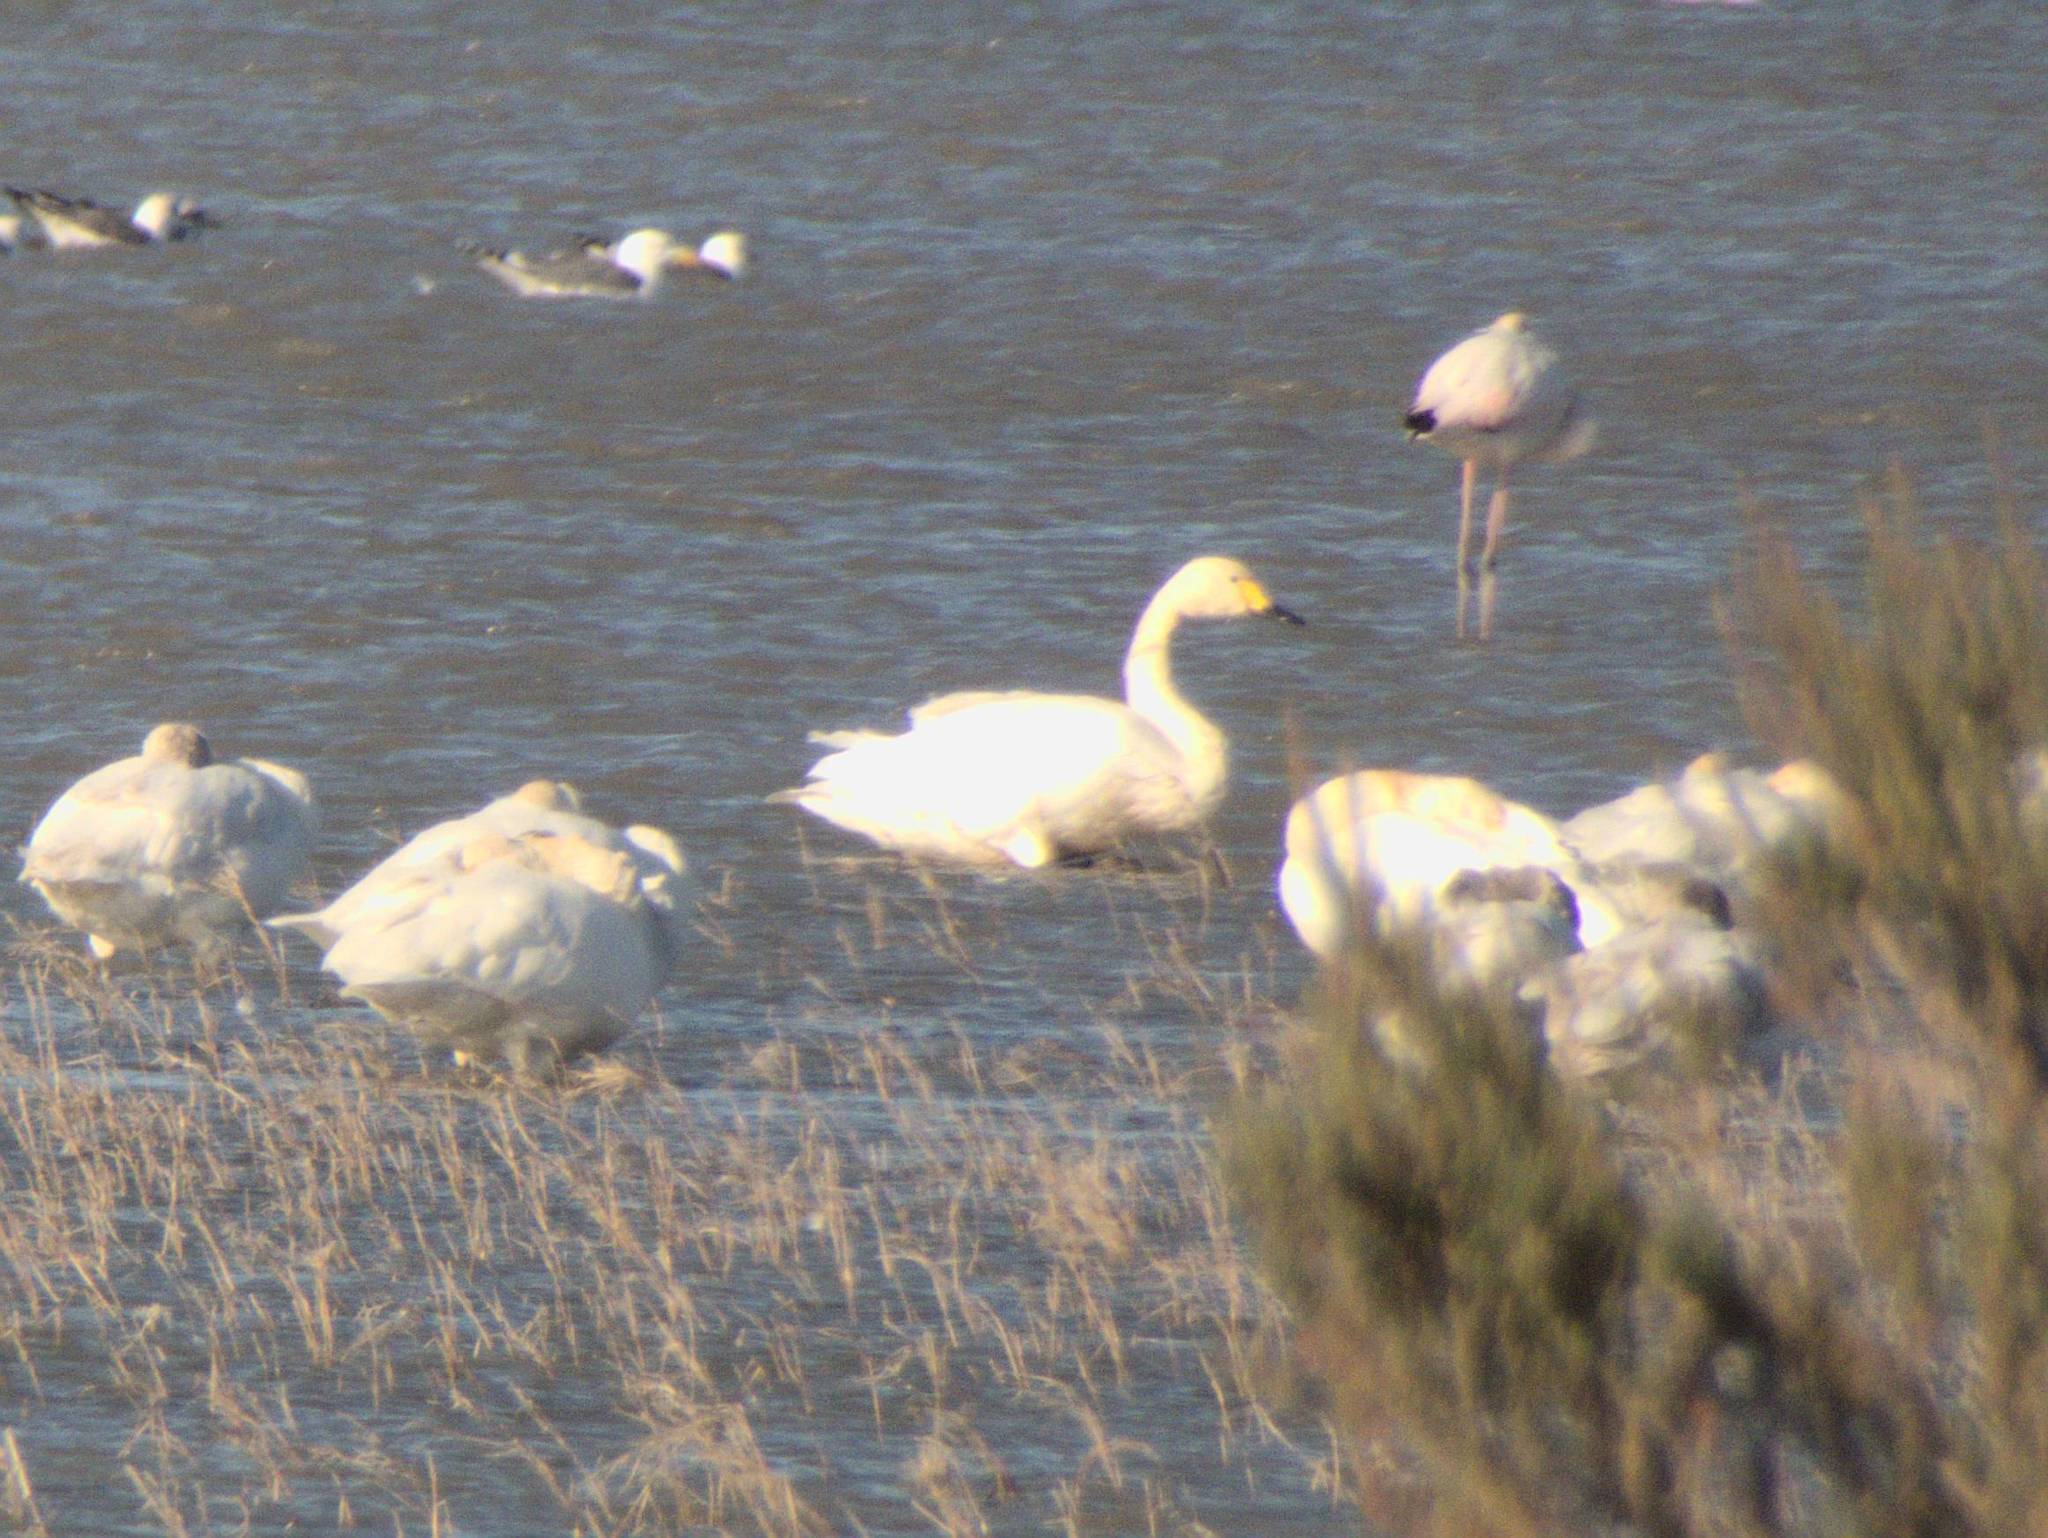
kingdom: Animalia
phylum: Chordata
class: Aves
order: Anseriformes
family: Anatidae
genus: Cygnus
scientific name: Cygnus columbianus
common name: Tundra swan
